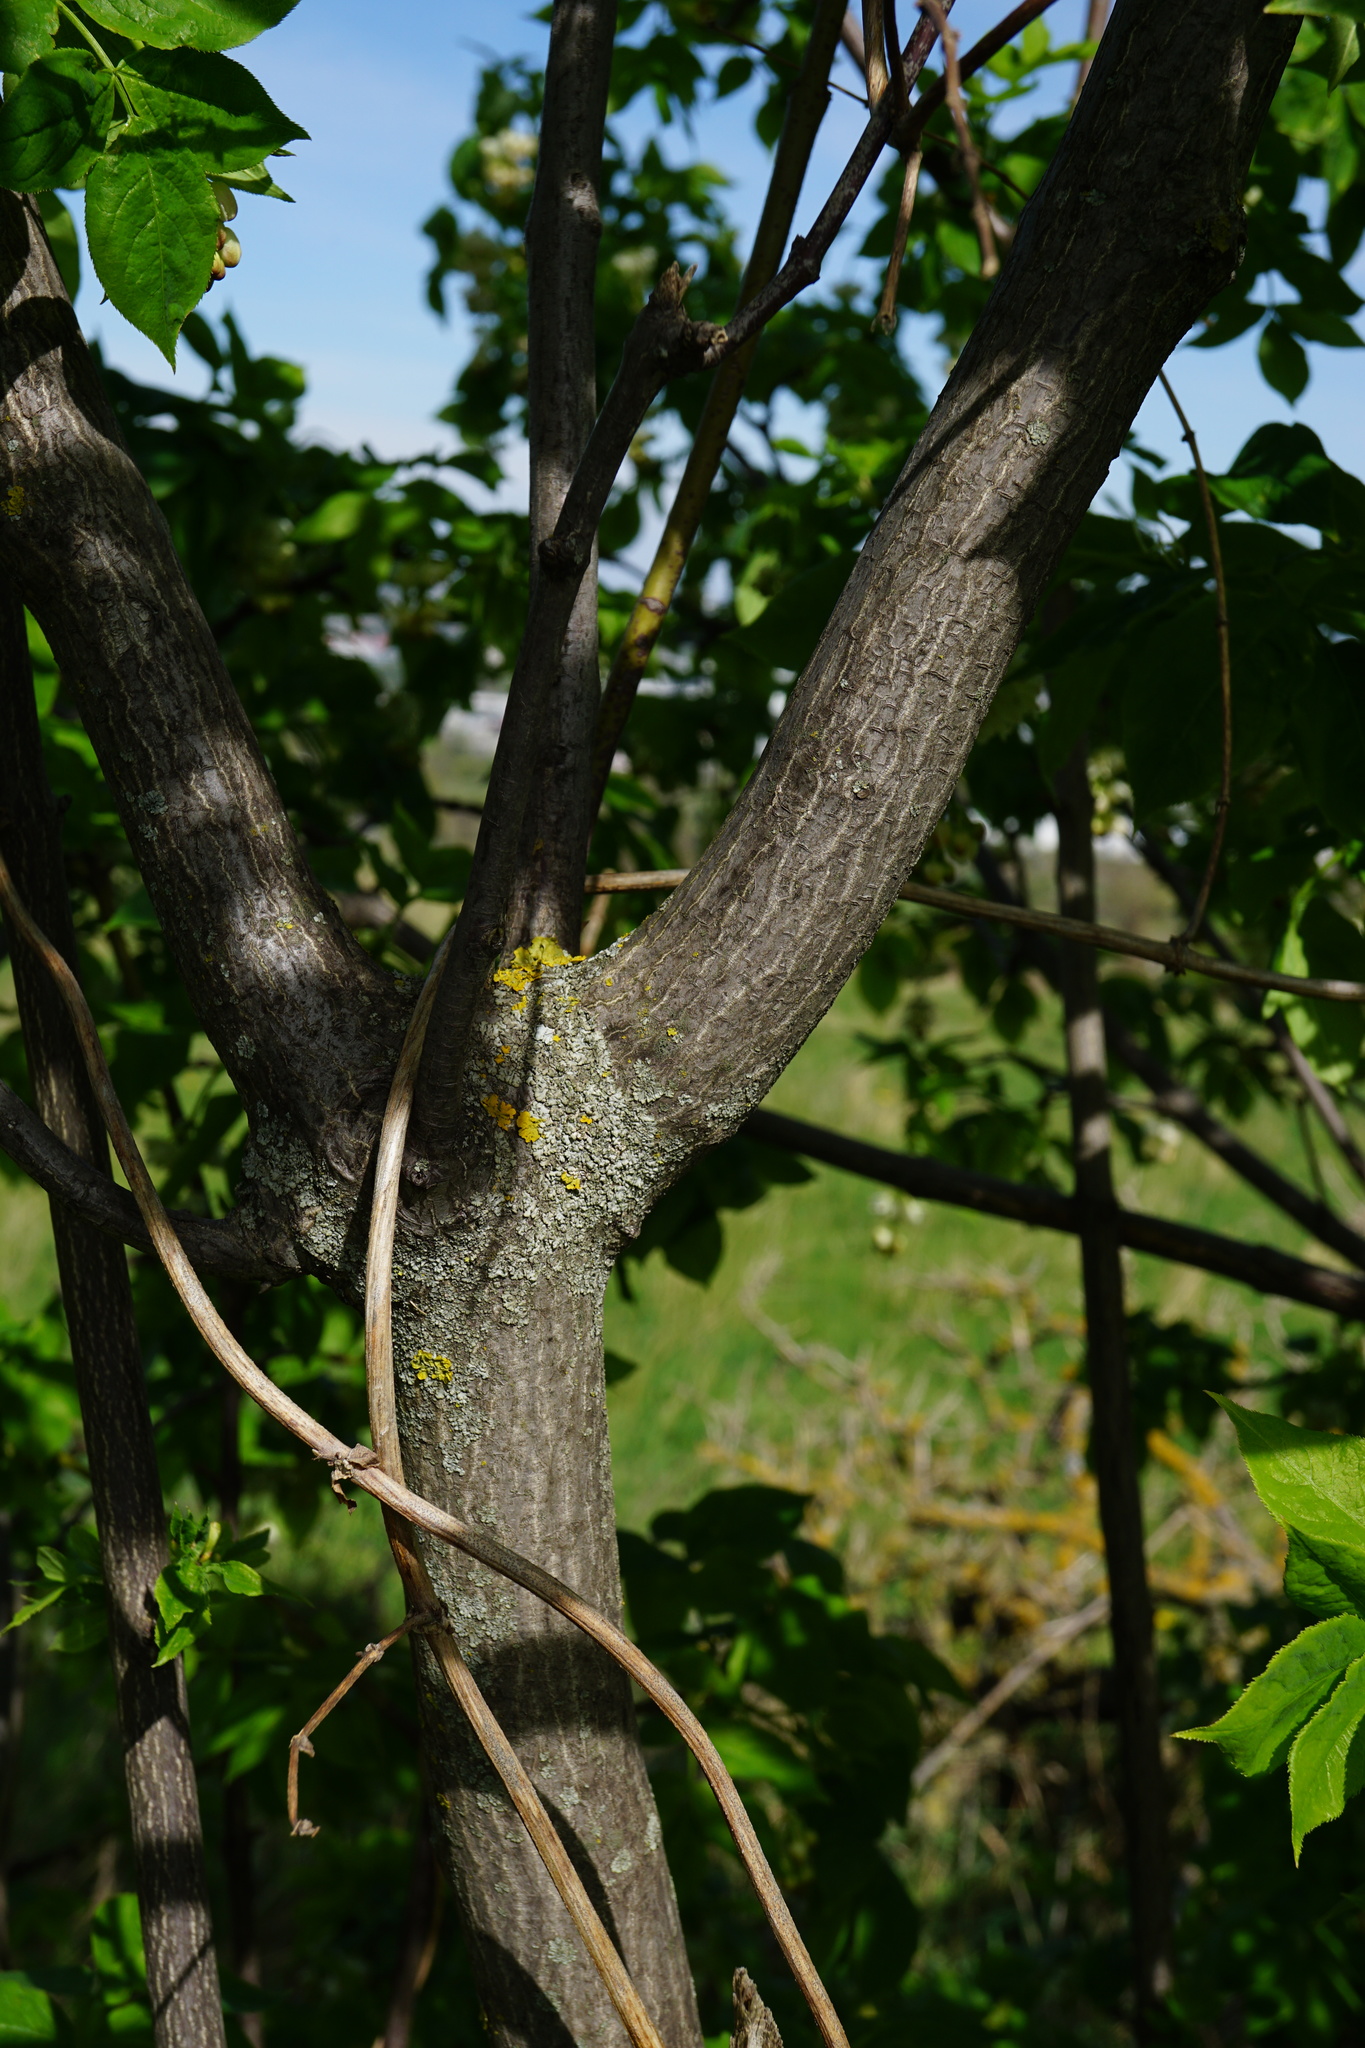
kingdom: Plantae
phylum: Tracheophyta
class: Magnoliopsida
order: Crossosomatales
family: Staphyleaceae
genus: Staphylea
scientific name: Staphylea pinnata
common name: Bladdernut
